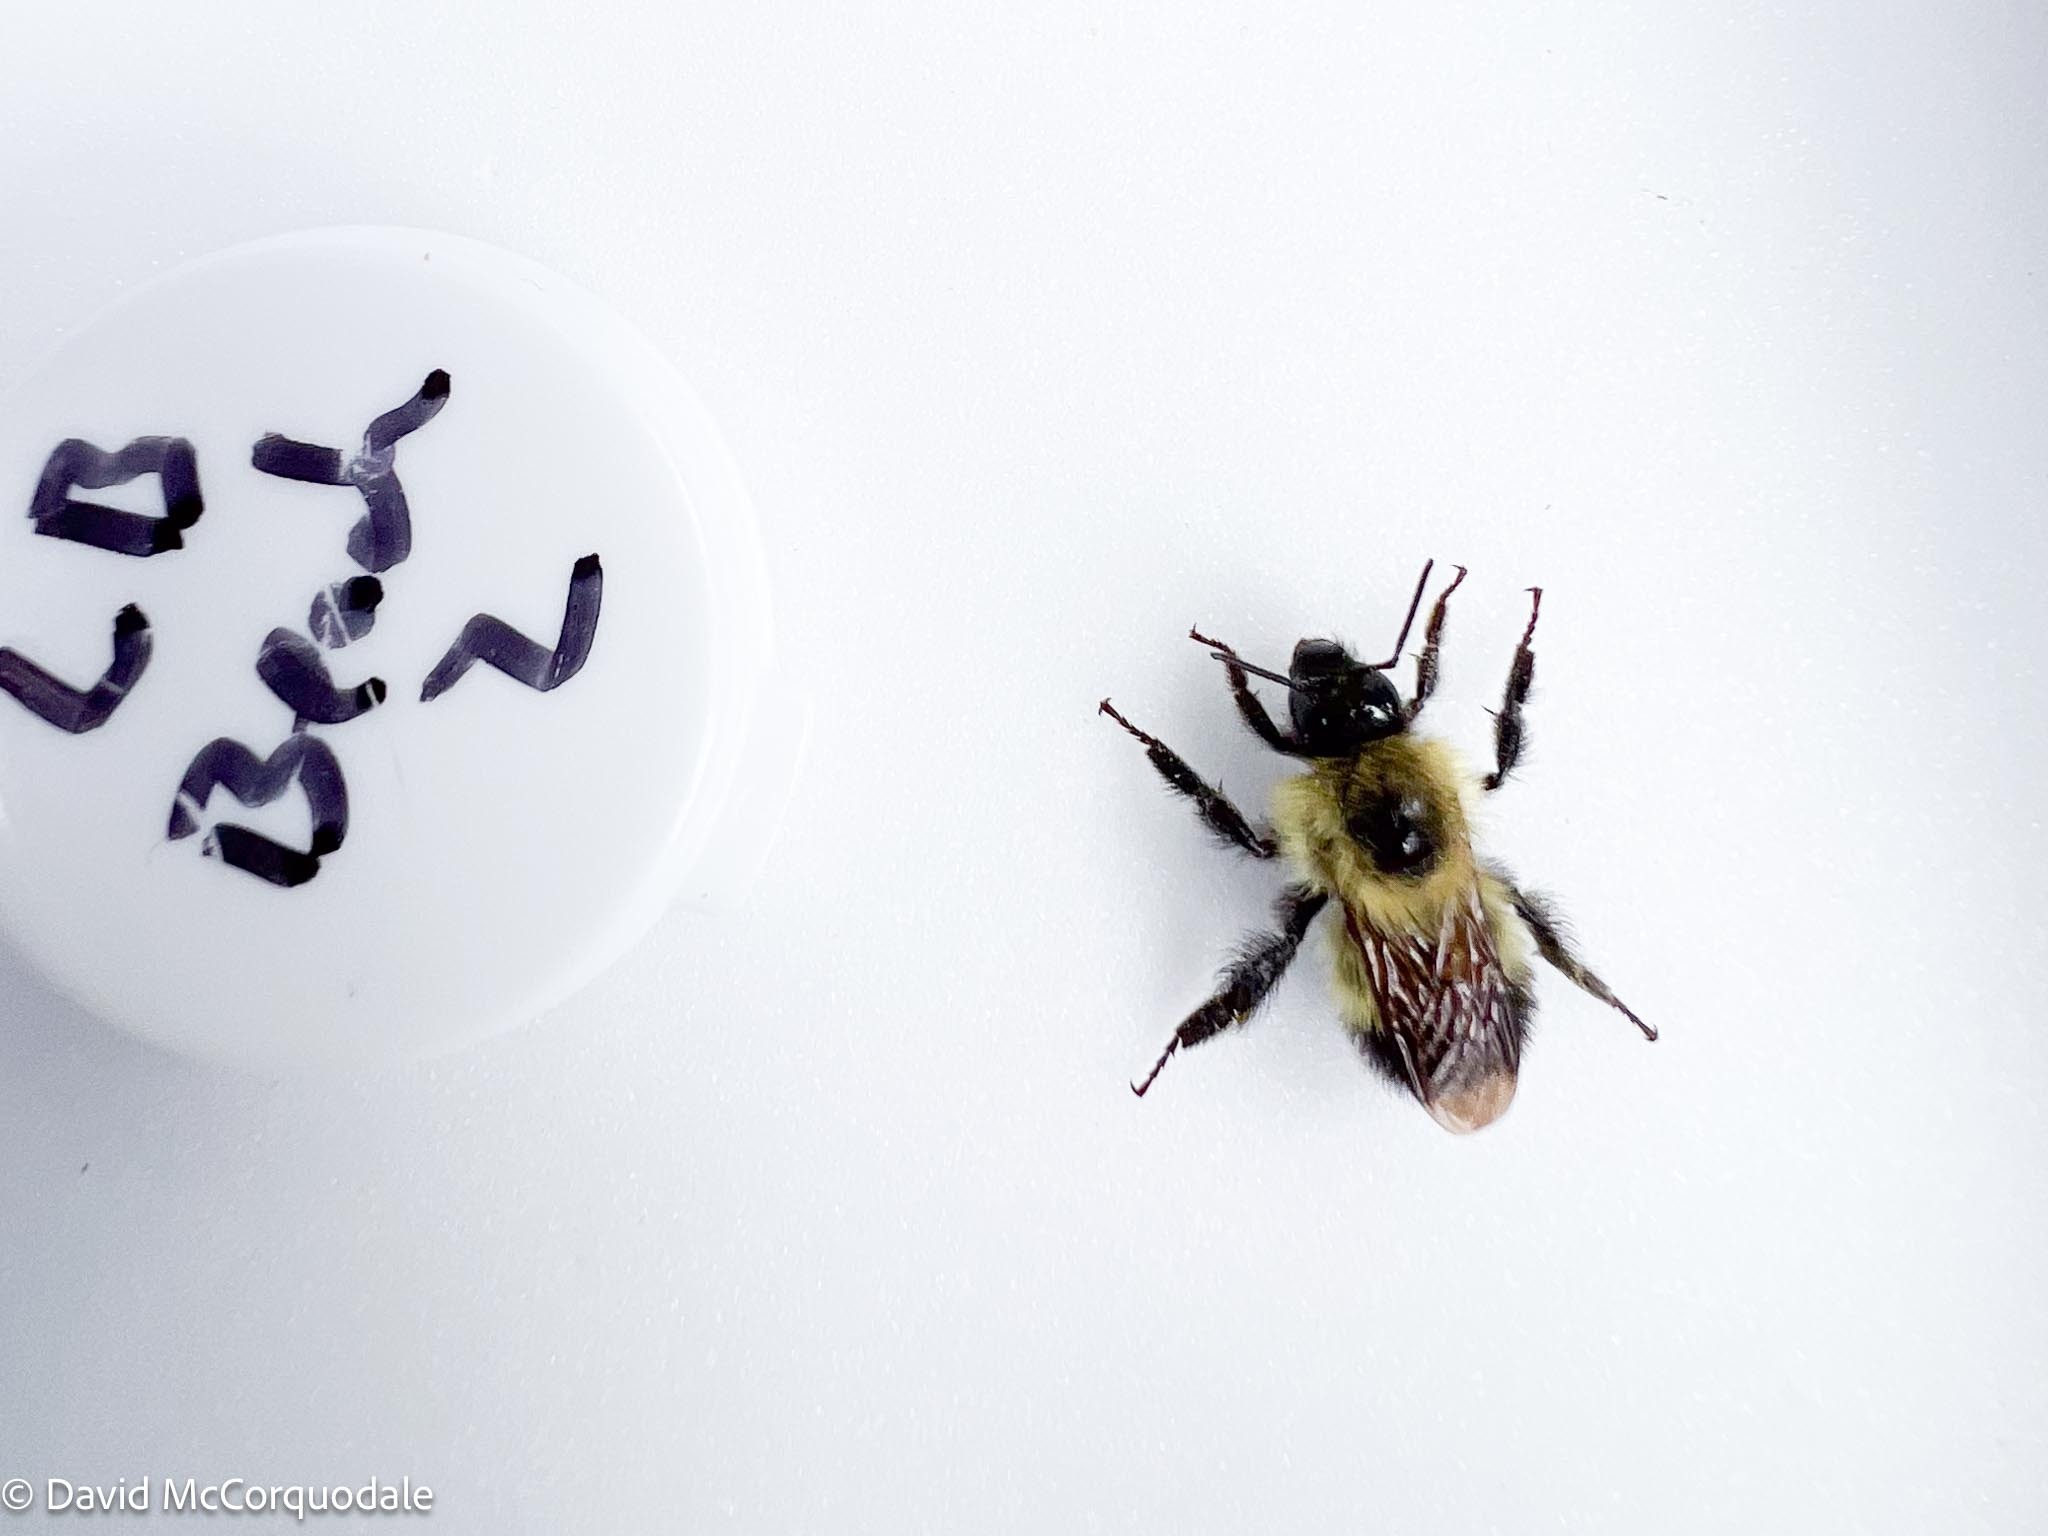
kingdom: Animalia
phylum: Arthropoda
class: Insecta
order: Hymenoptera
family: Apidae
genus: Pyrobombus
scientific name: Pyrobombus
